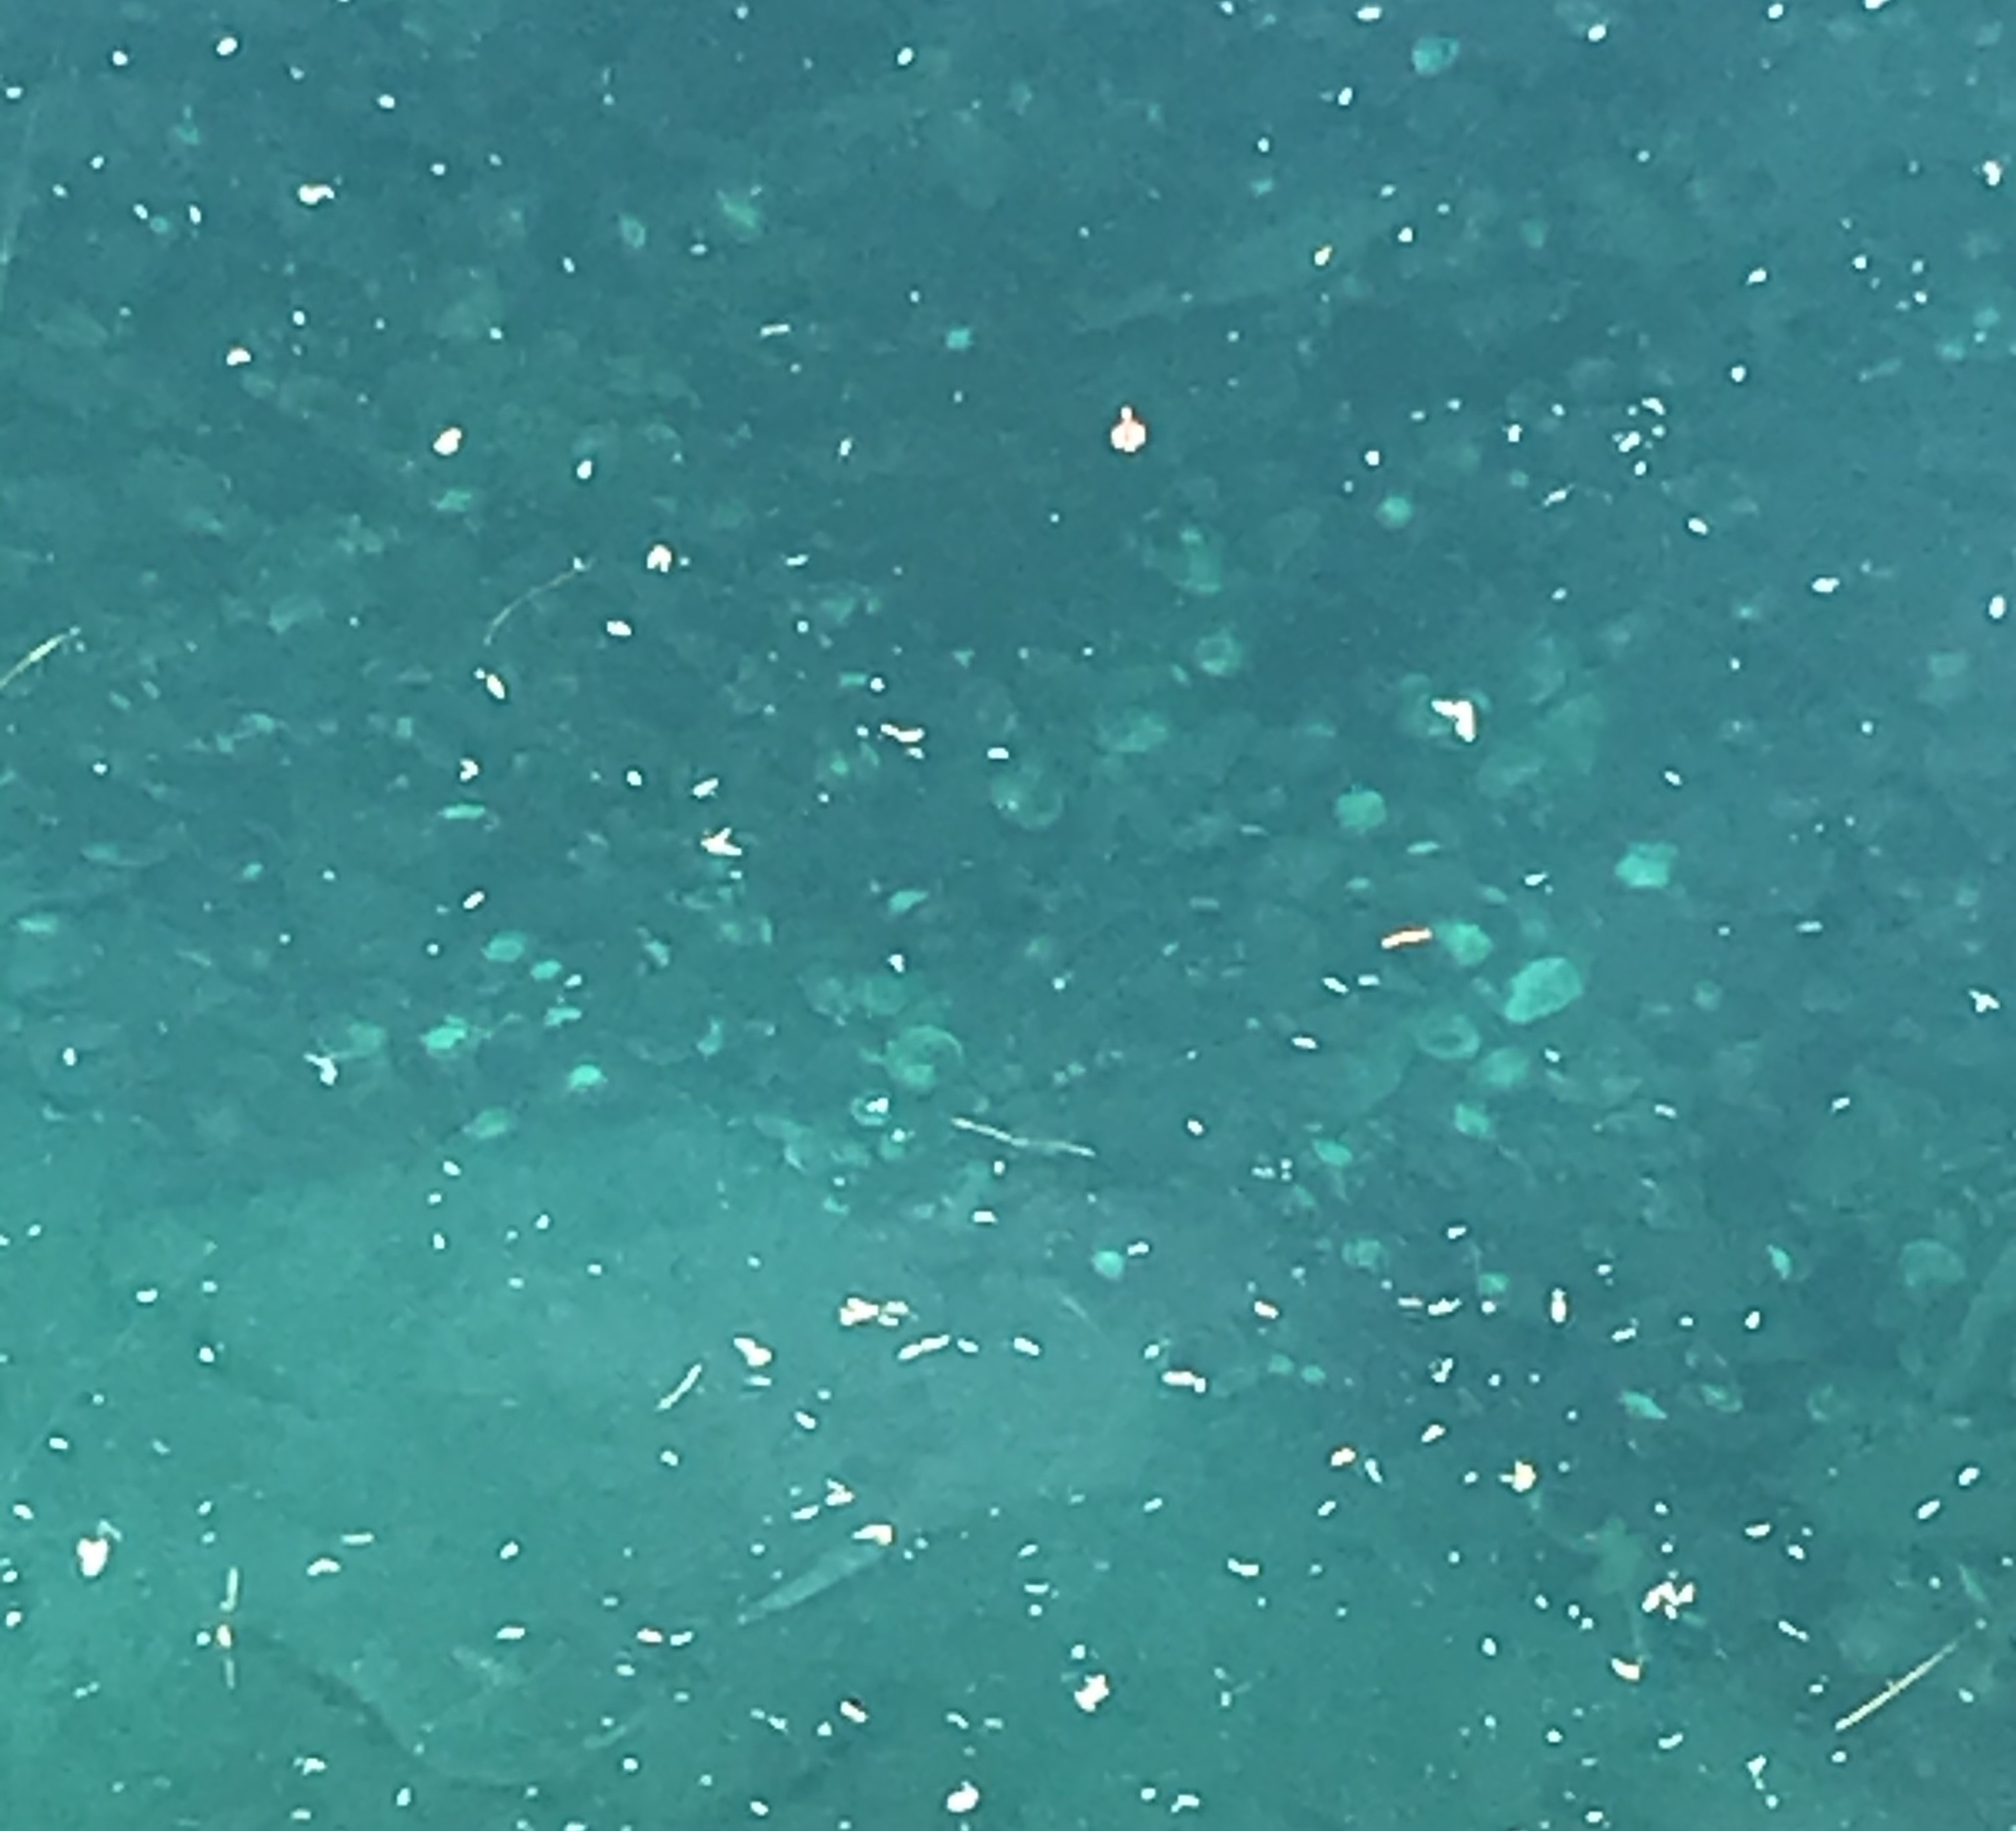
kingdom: Animalia
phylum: Mollusca
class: Bivalvia
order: Venerida
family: Cyrenidae
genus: Corbicula
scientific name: Corbicula fluminea
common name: Asian clam
